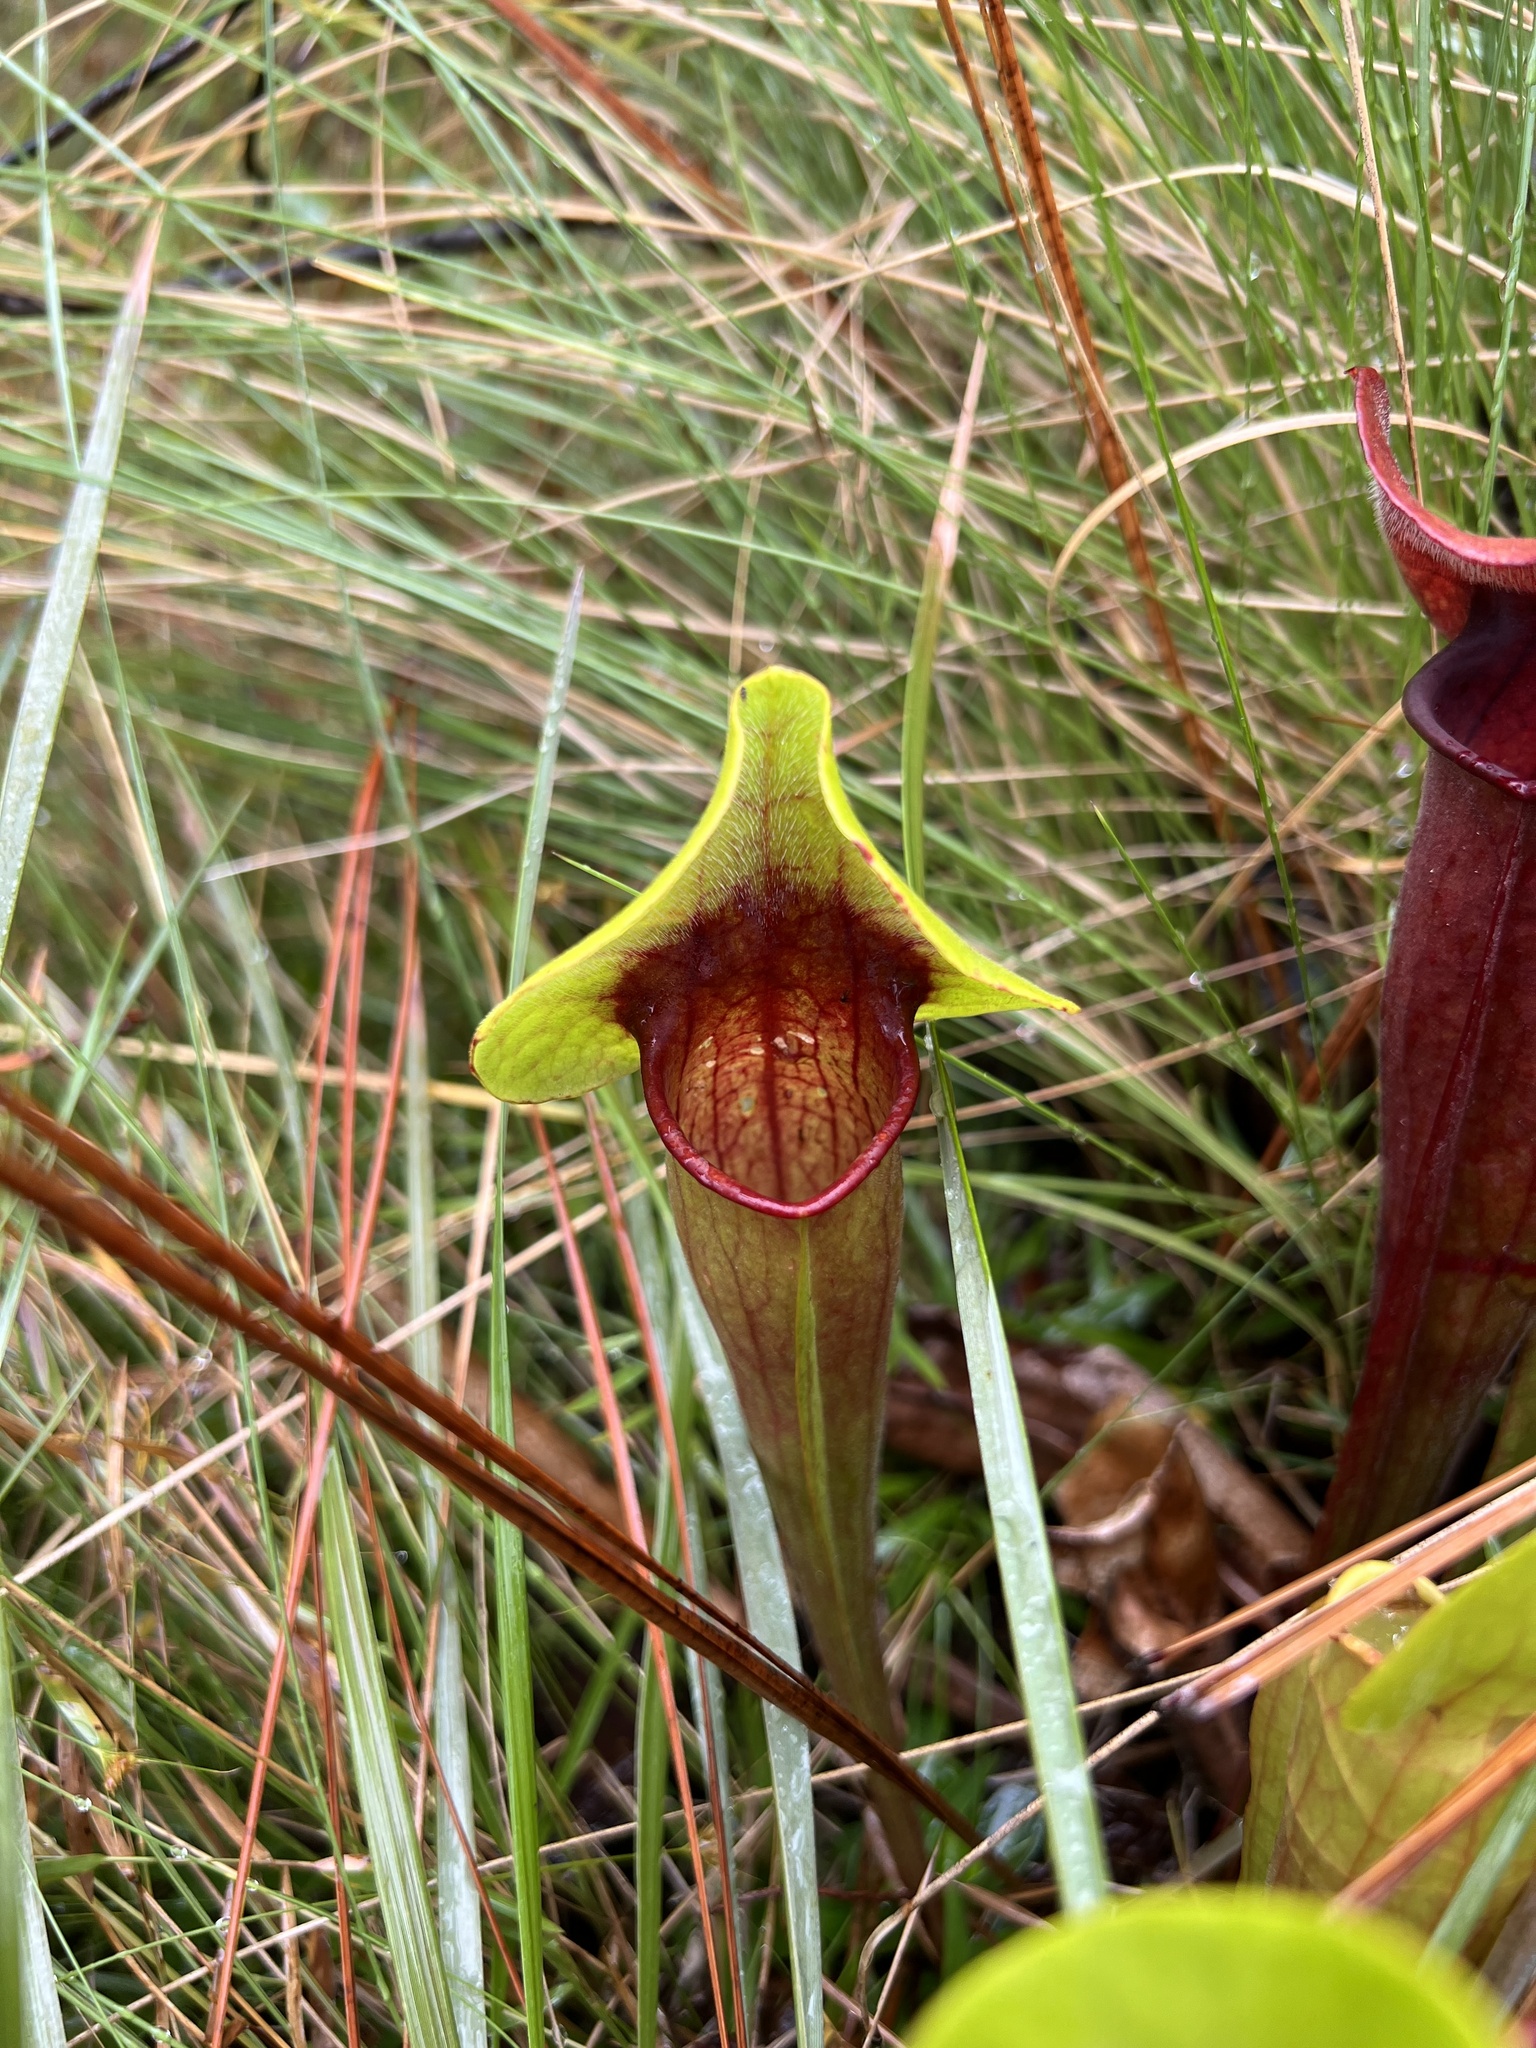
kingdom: Plantae
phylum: Tracheophyta
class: Magnoliopsida
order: Ericales
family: Sarraceniaceae
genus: Sarracenia
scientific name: Sarracenia catesbaei
